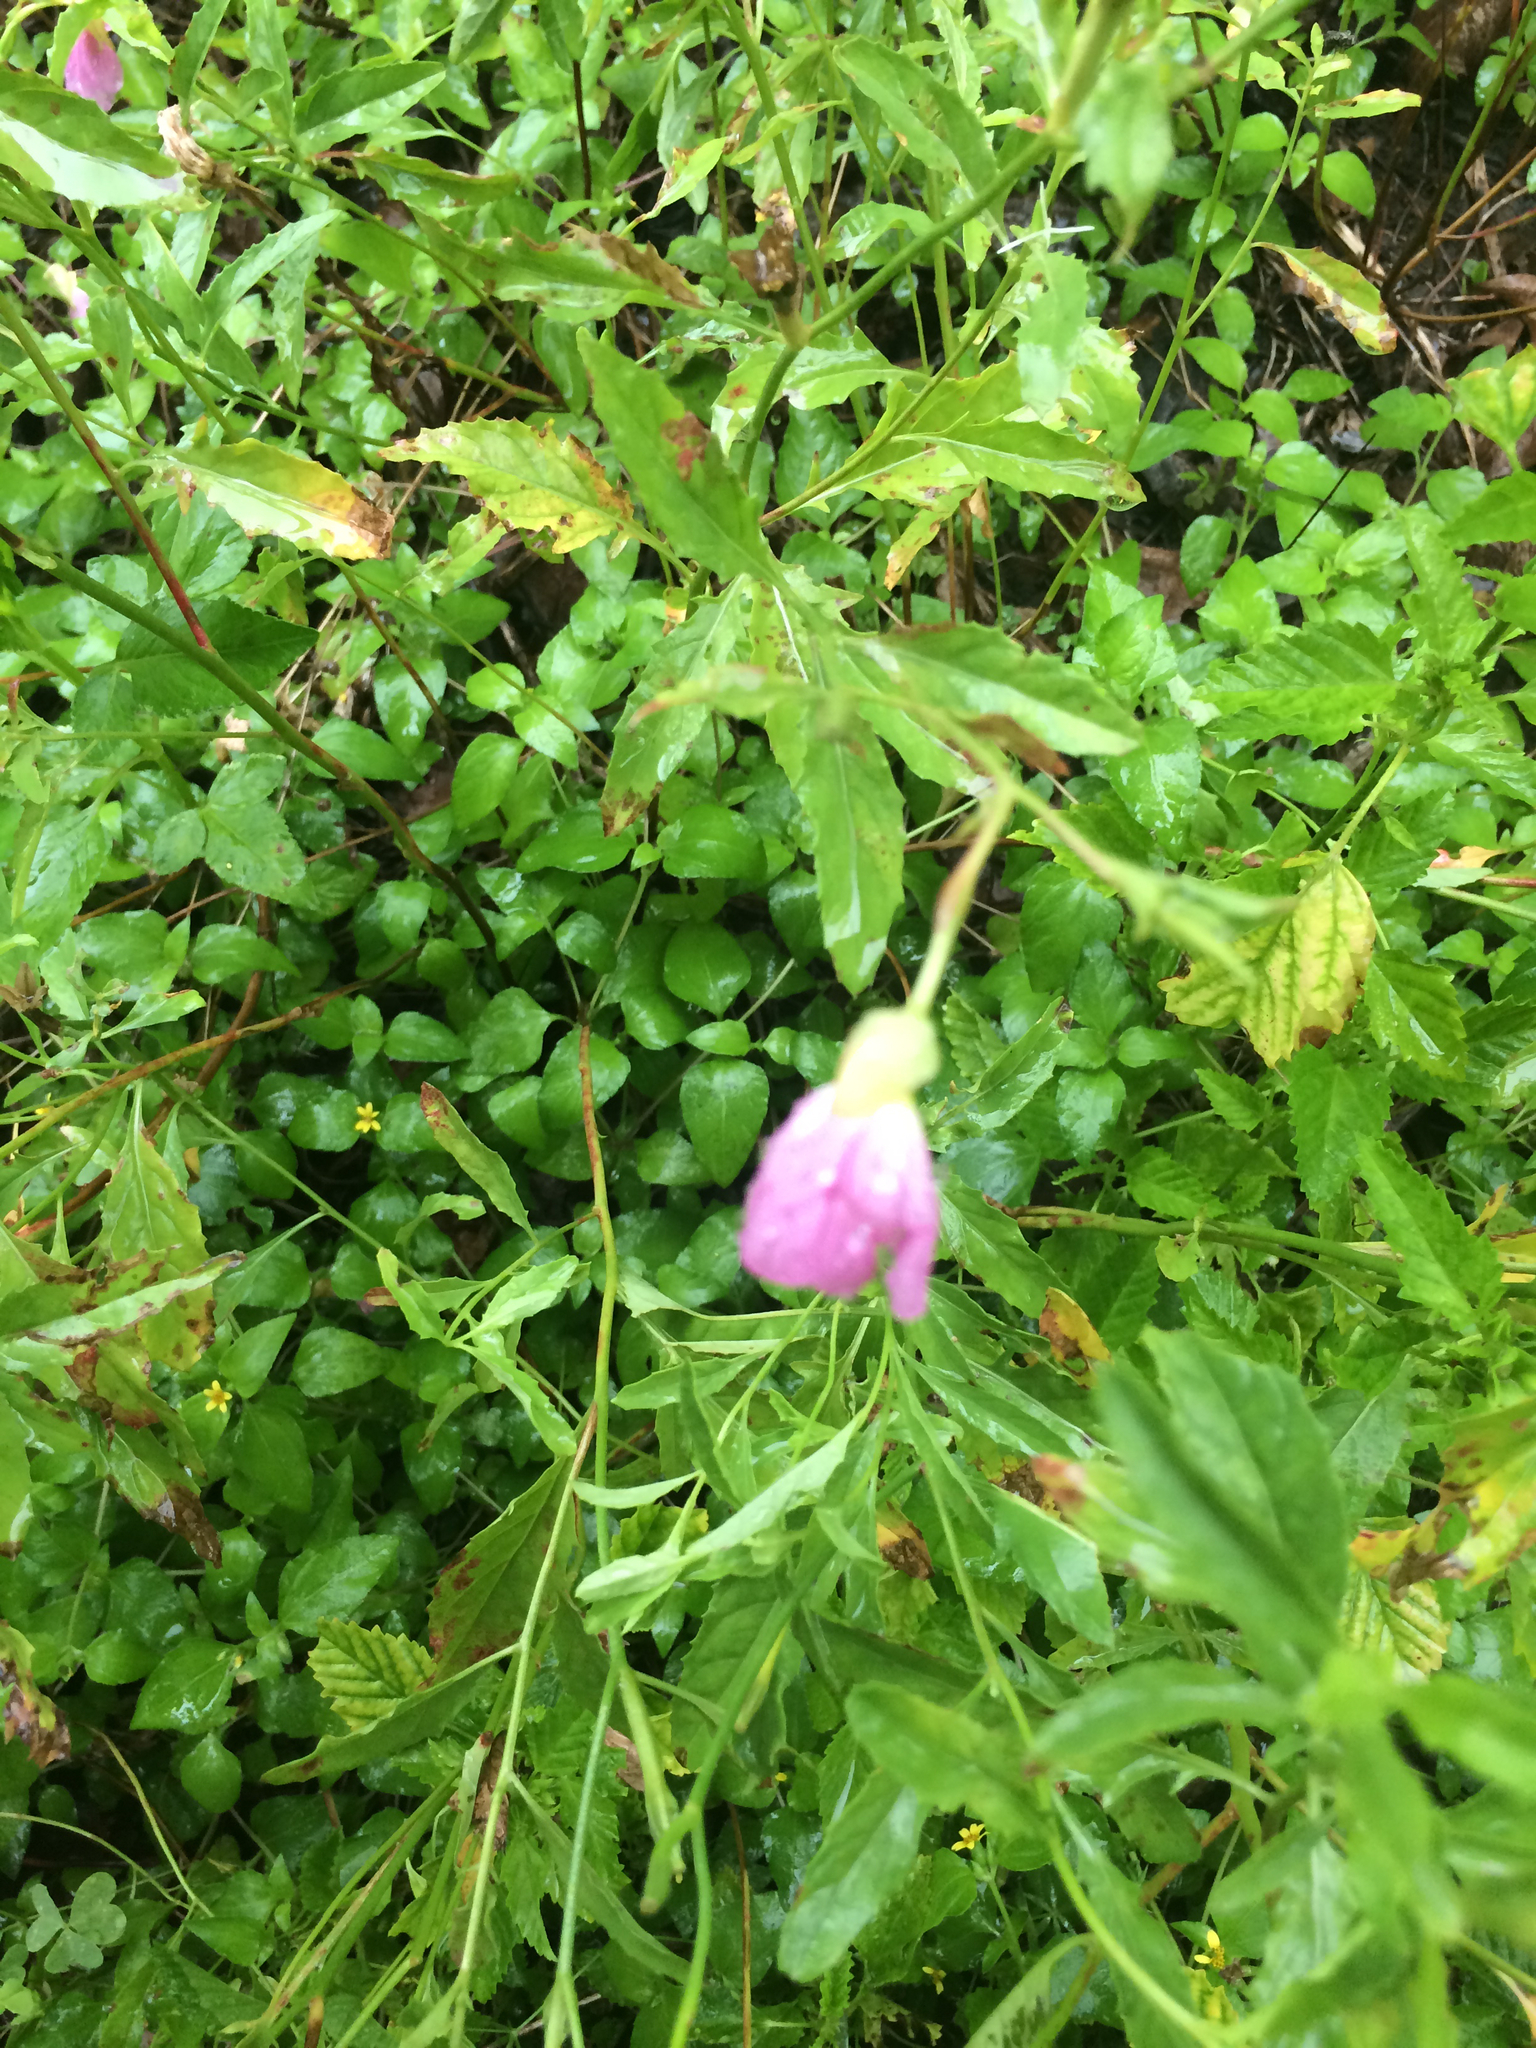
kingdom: Plantae
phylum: Tracheophyta
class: Magnoliopsida
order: Myrtales
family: Onagraceae
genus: Oenothera
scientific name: Oenothera speciosa
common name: White evening-primrose
